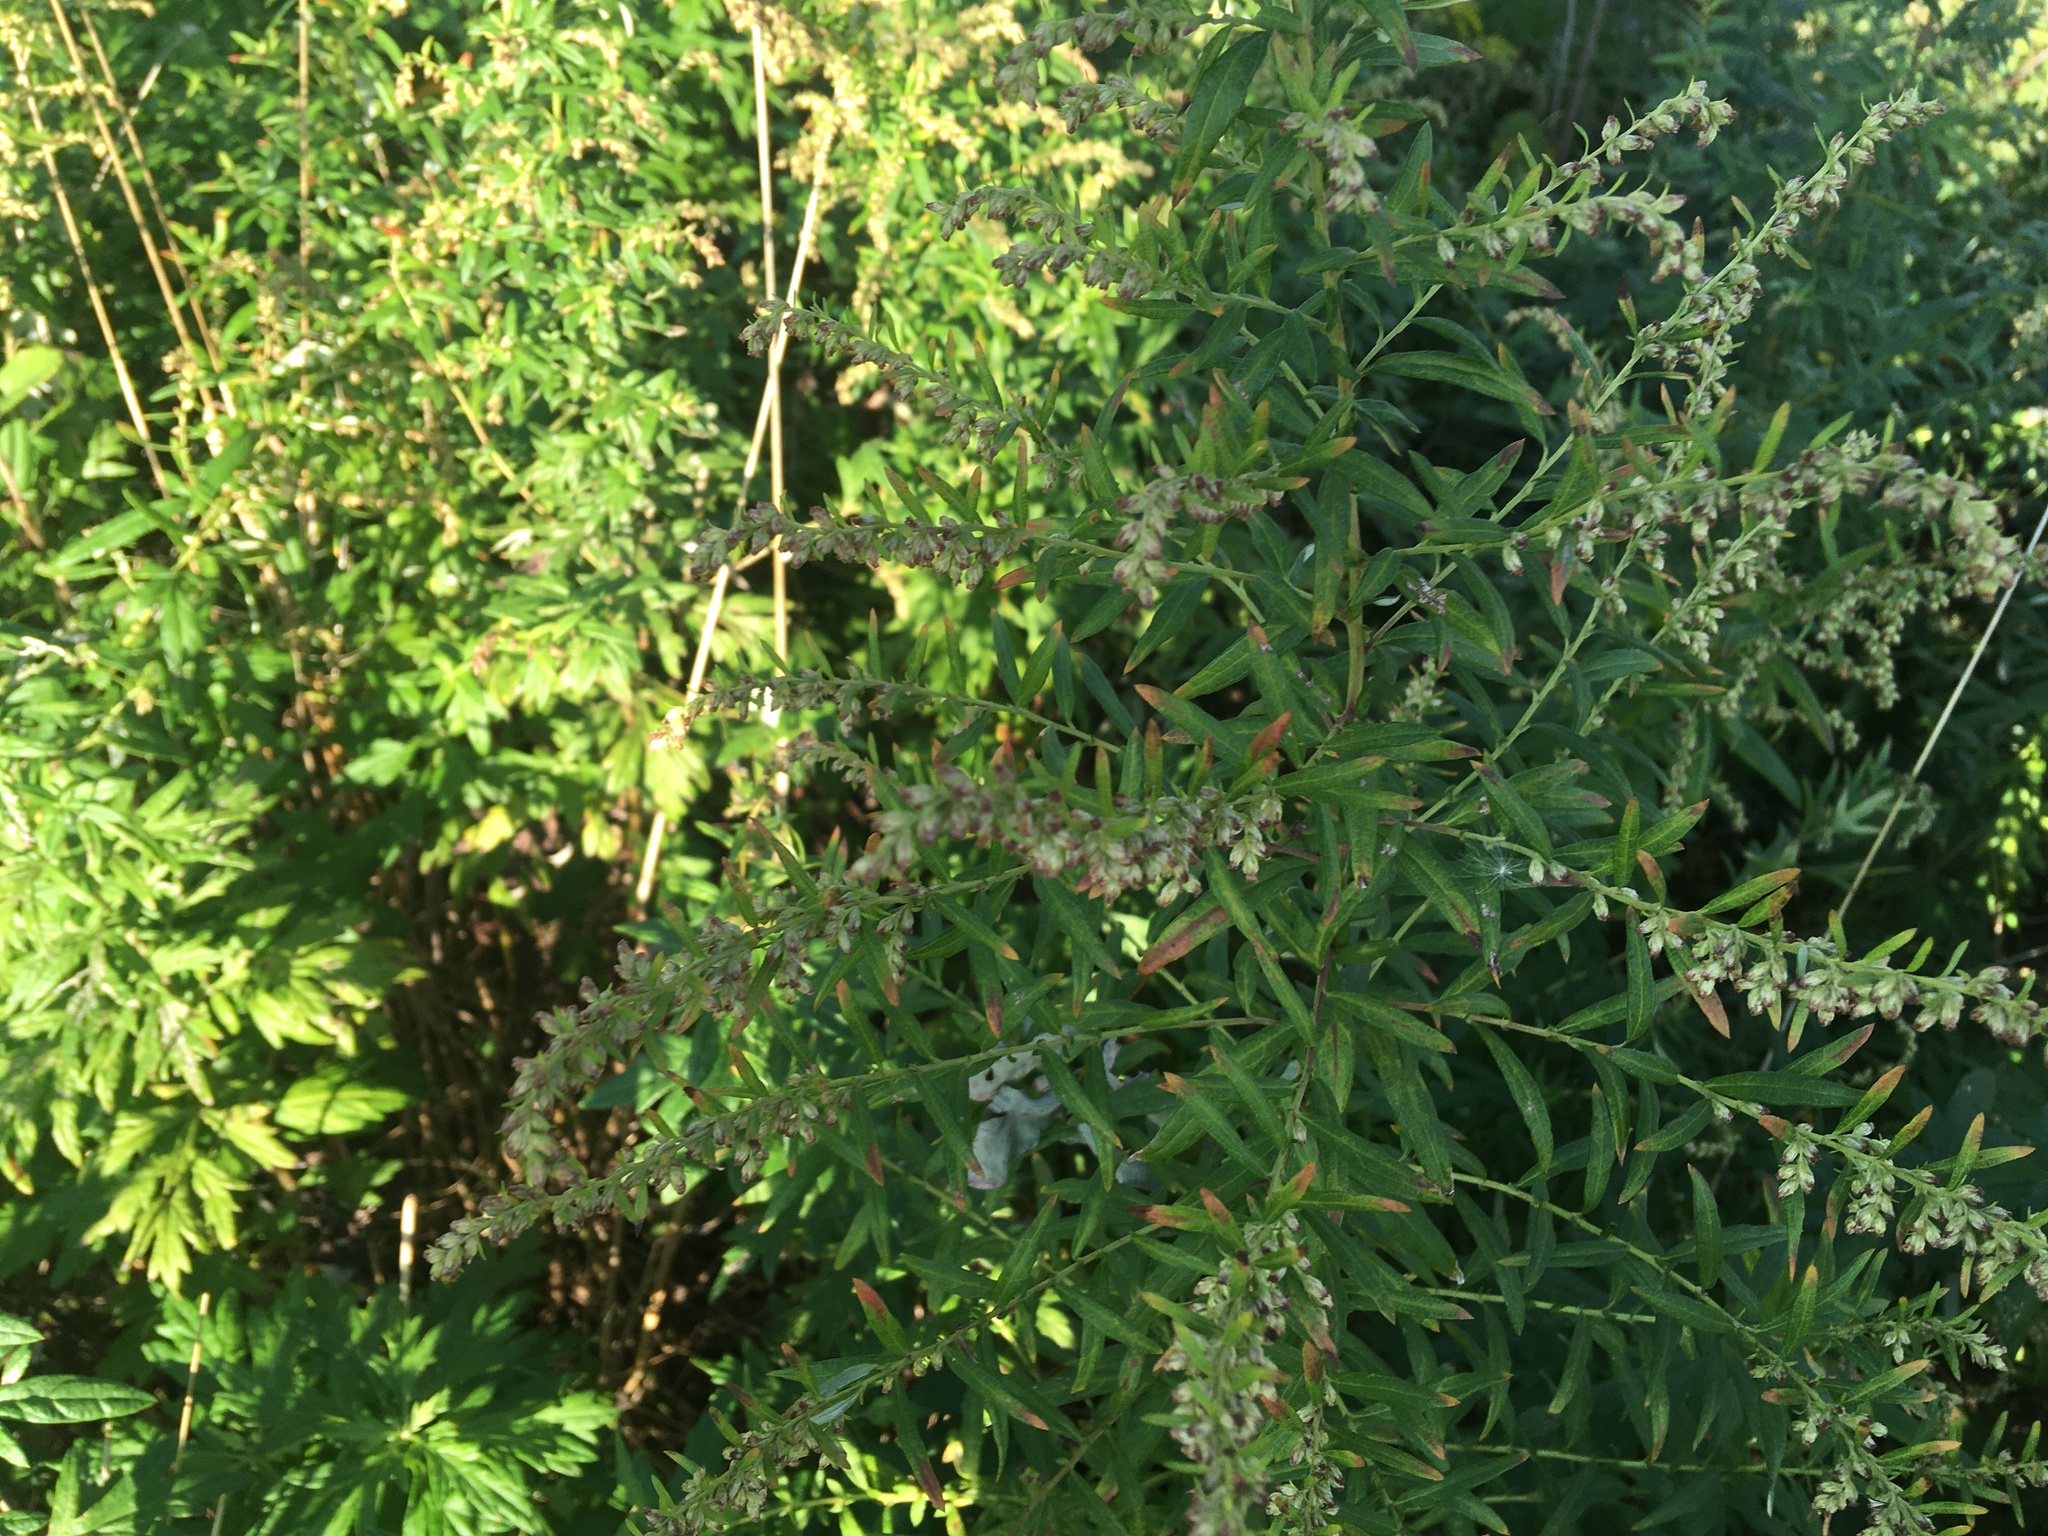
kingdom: Plantae
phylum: Tracheophyta
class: Magnoliopsida
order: Asterales
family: Asteraceae
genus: Artemisia
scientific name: Artemisia vulgaris
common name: Mugwort
